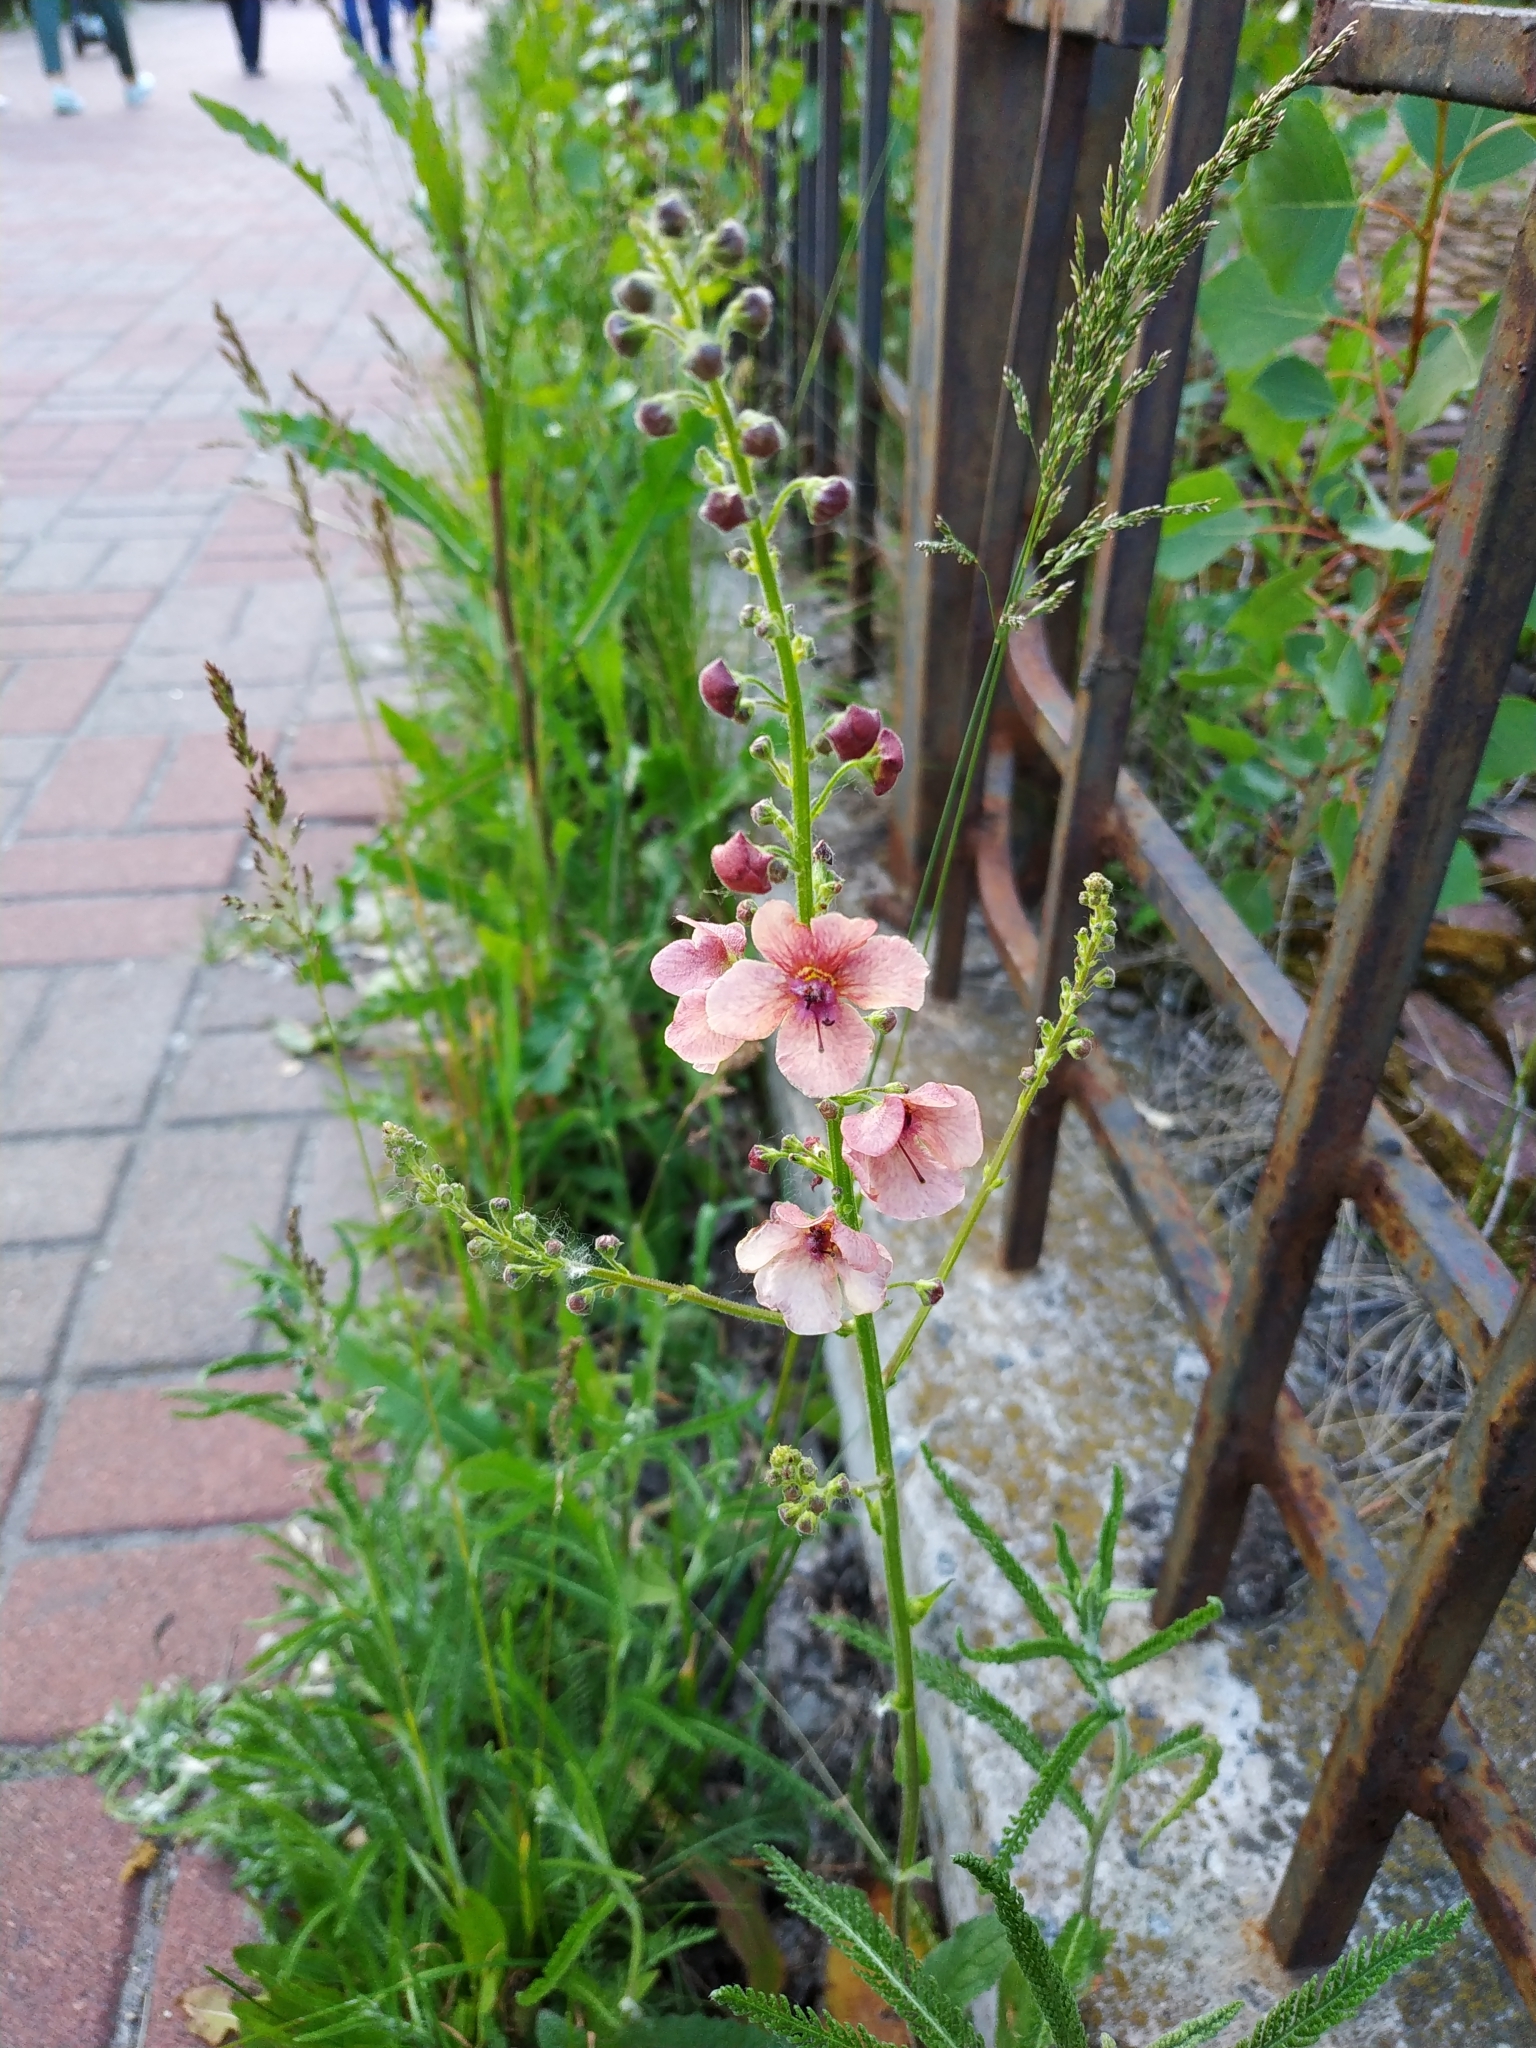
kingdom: Plantae
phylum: Tracheophyta
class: Magnoliopsida
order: Lamiales
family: Scrophulariaceae
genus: Verbascum
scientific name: Verbascum rubiginosum
